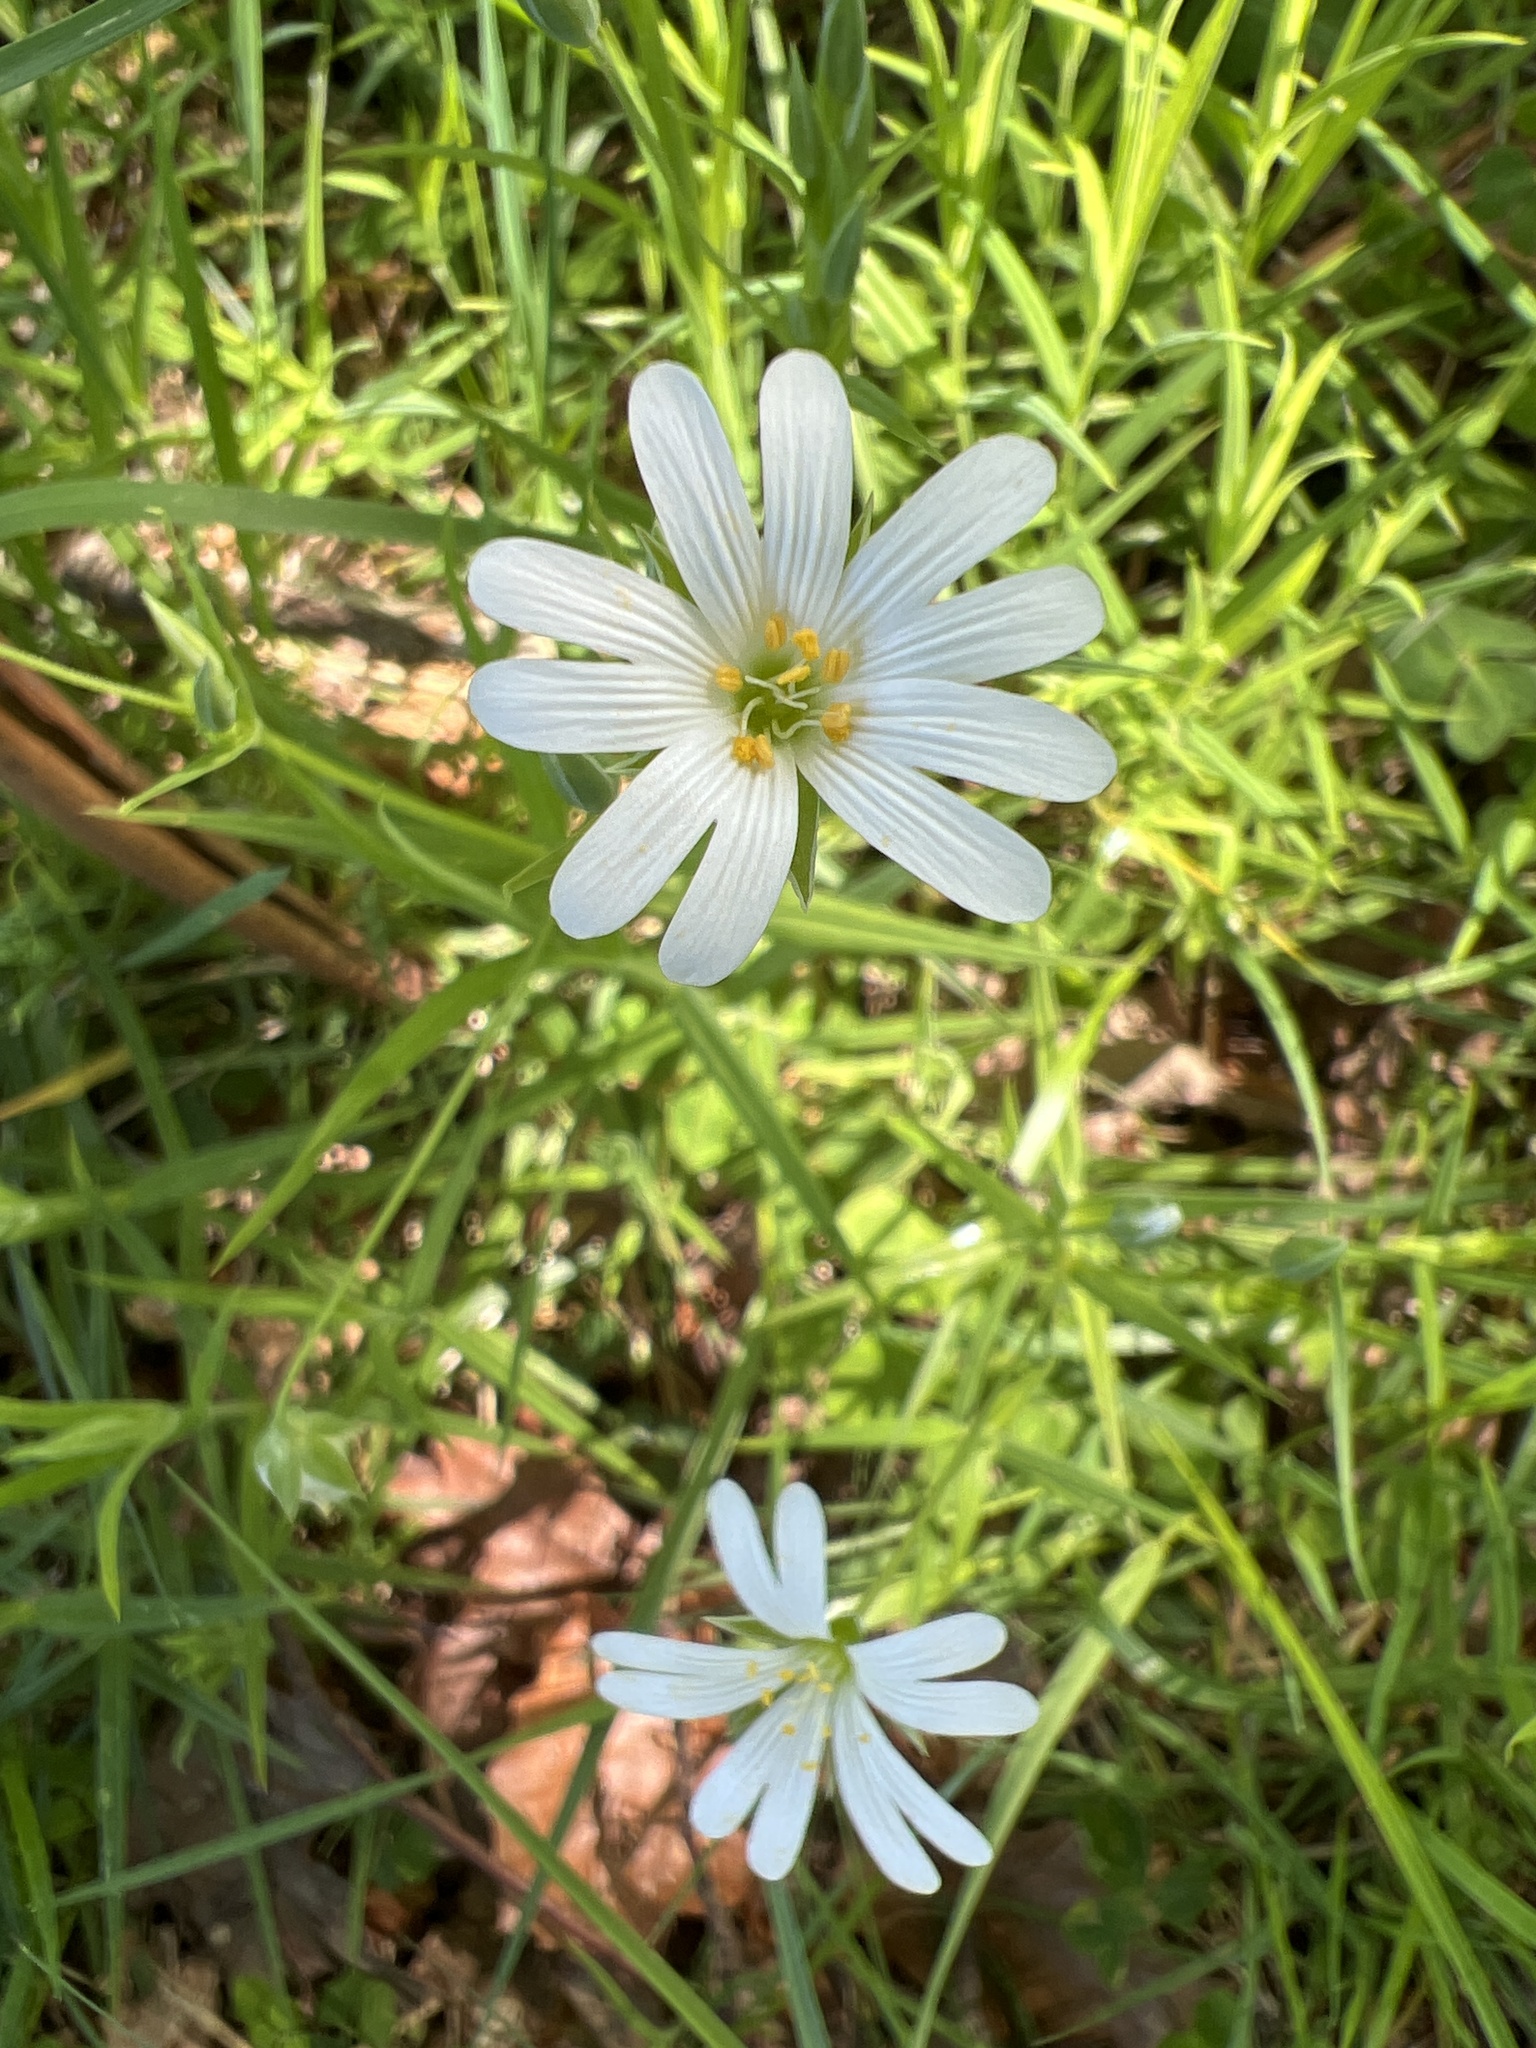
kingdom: Plantae
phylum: Tracheophyta
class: Magnoliopsida
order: Caryophyllales
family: Caryophyllaceae
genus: Rabelera
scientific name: Rabelera holostea
